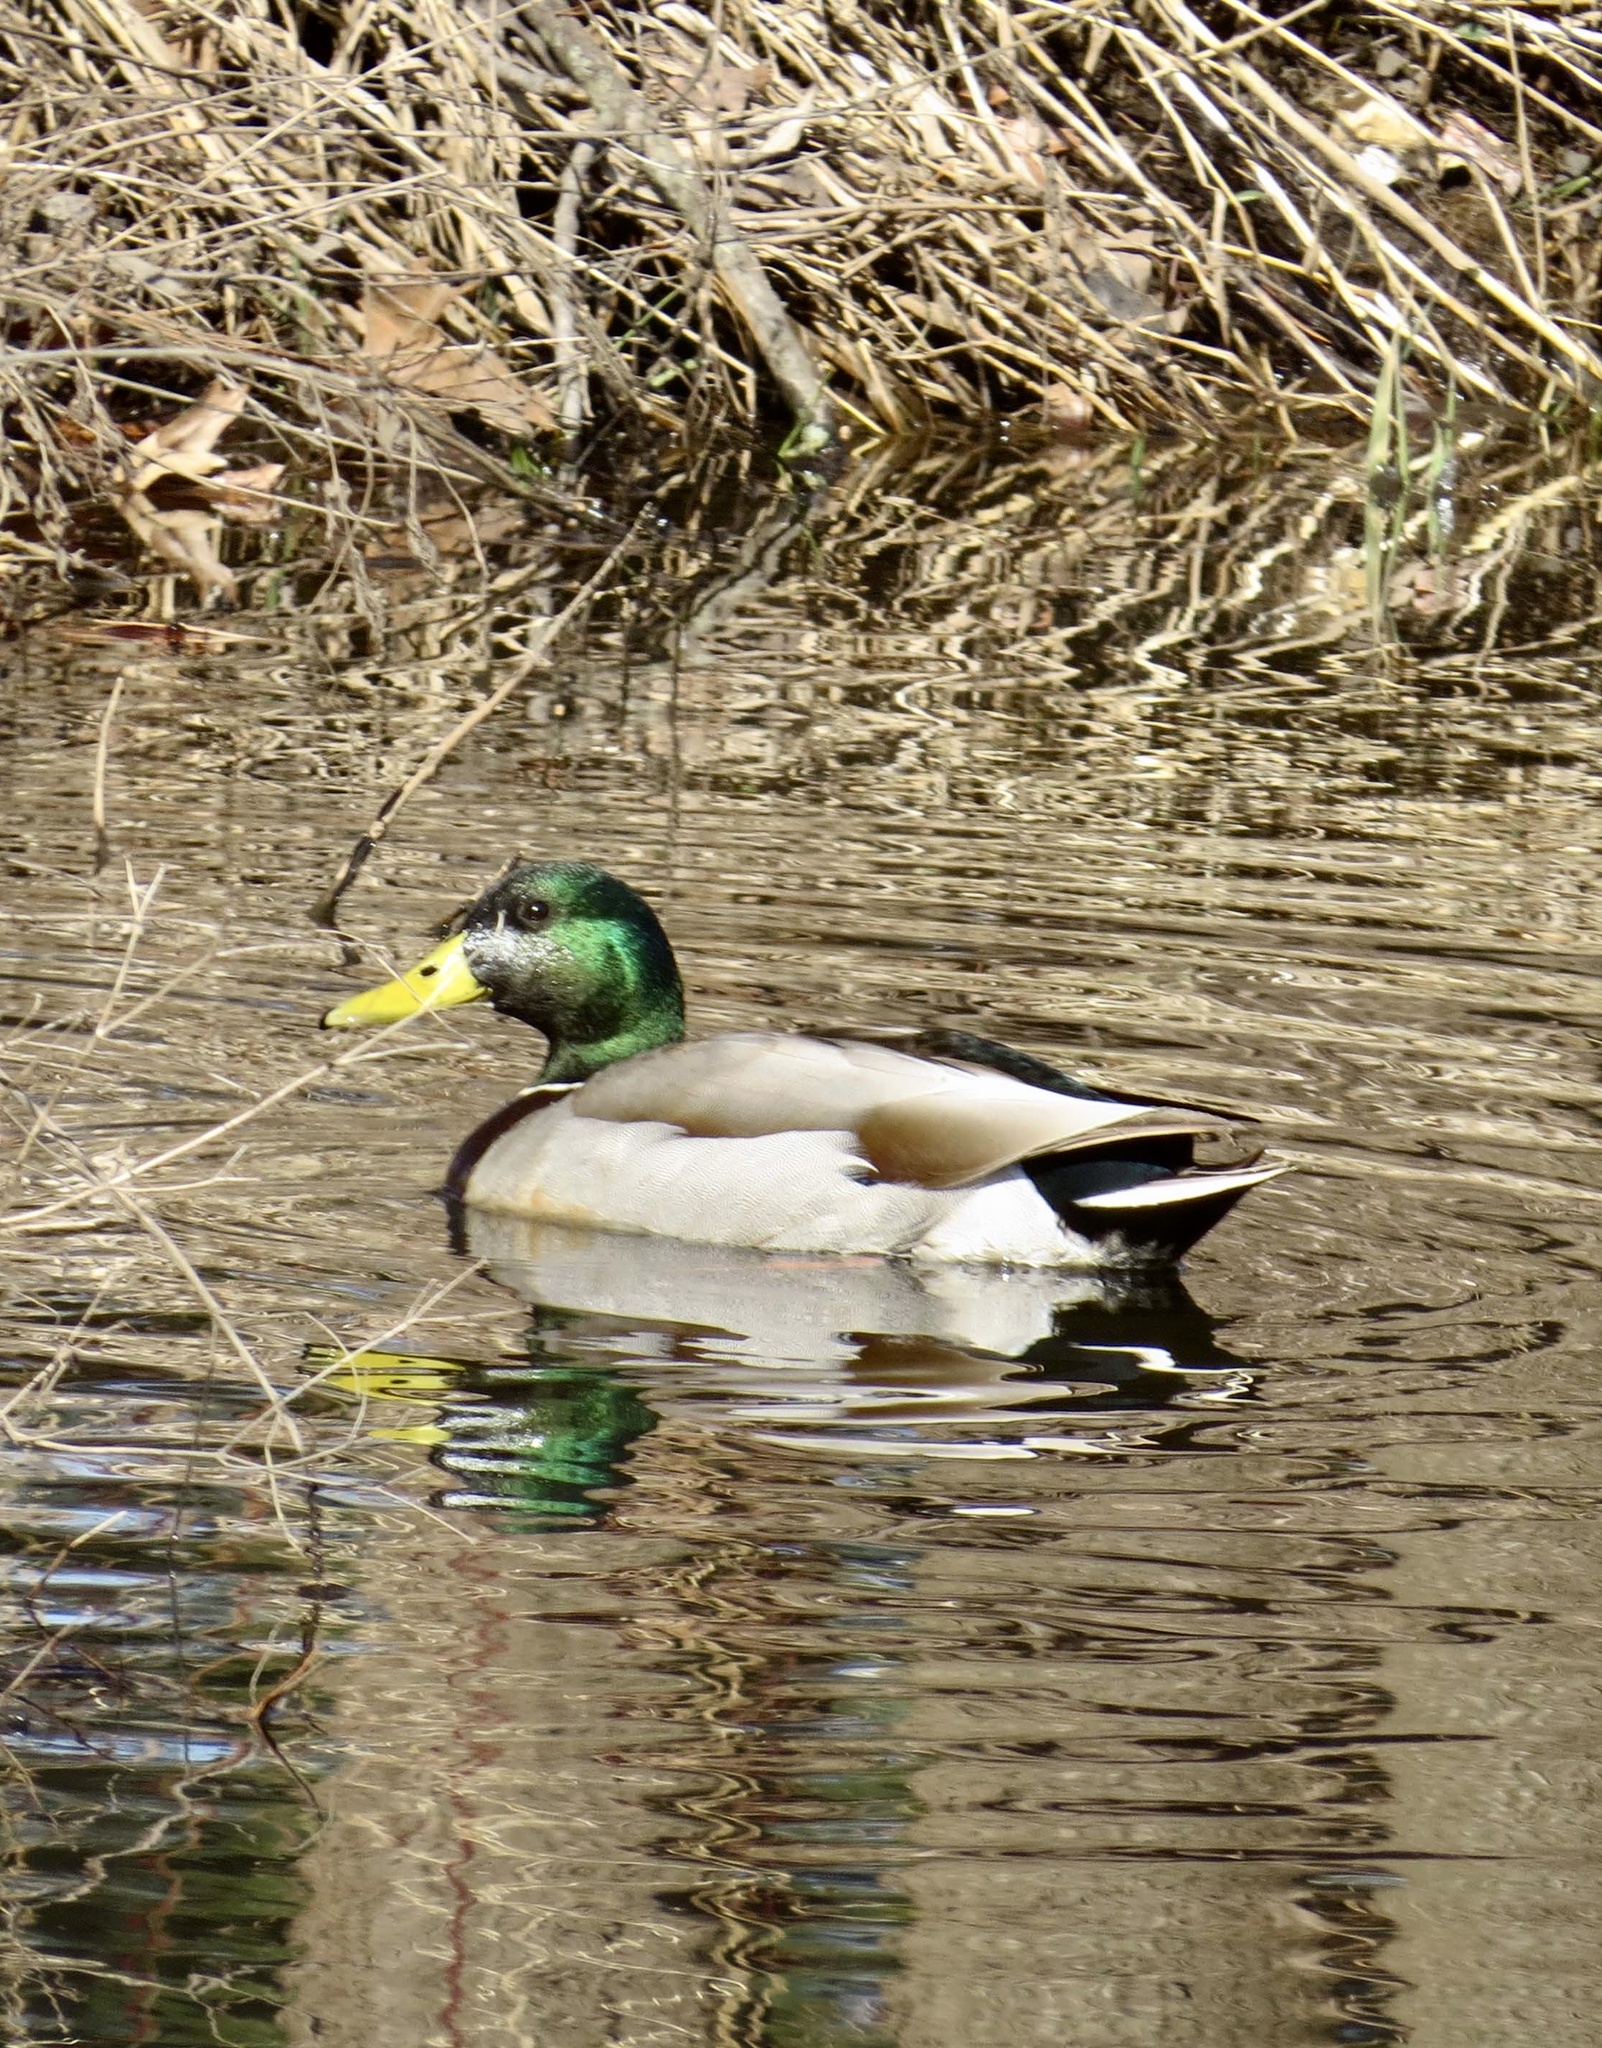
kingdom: Animalia
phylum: Chordata
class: Aves
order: Anseriformes
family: Anatidae
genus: Anas
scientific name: Anas platyrhynchos
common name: Mallard
